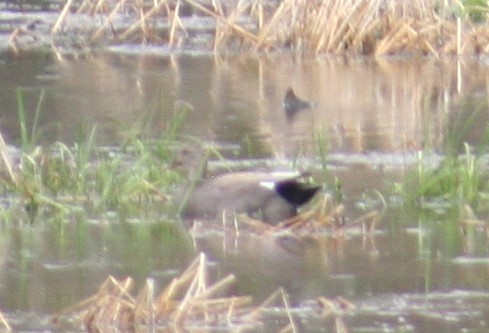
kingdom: Animalia
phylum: Chordata
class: Aves
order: Anseriformes
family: Anatidae
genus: Mareca
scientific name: Mareca strepera
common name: Gadwall
